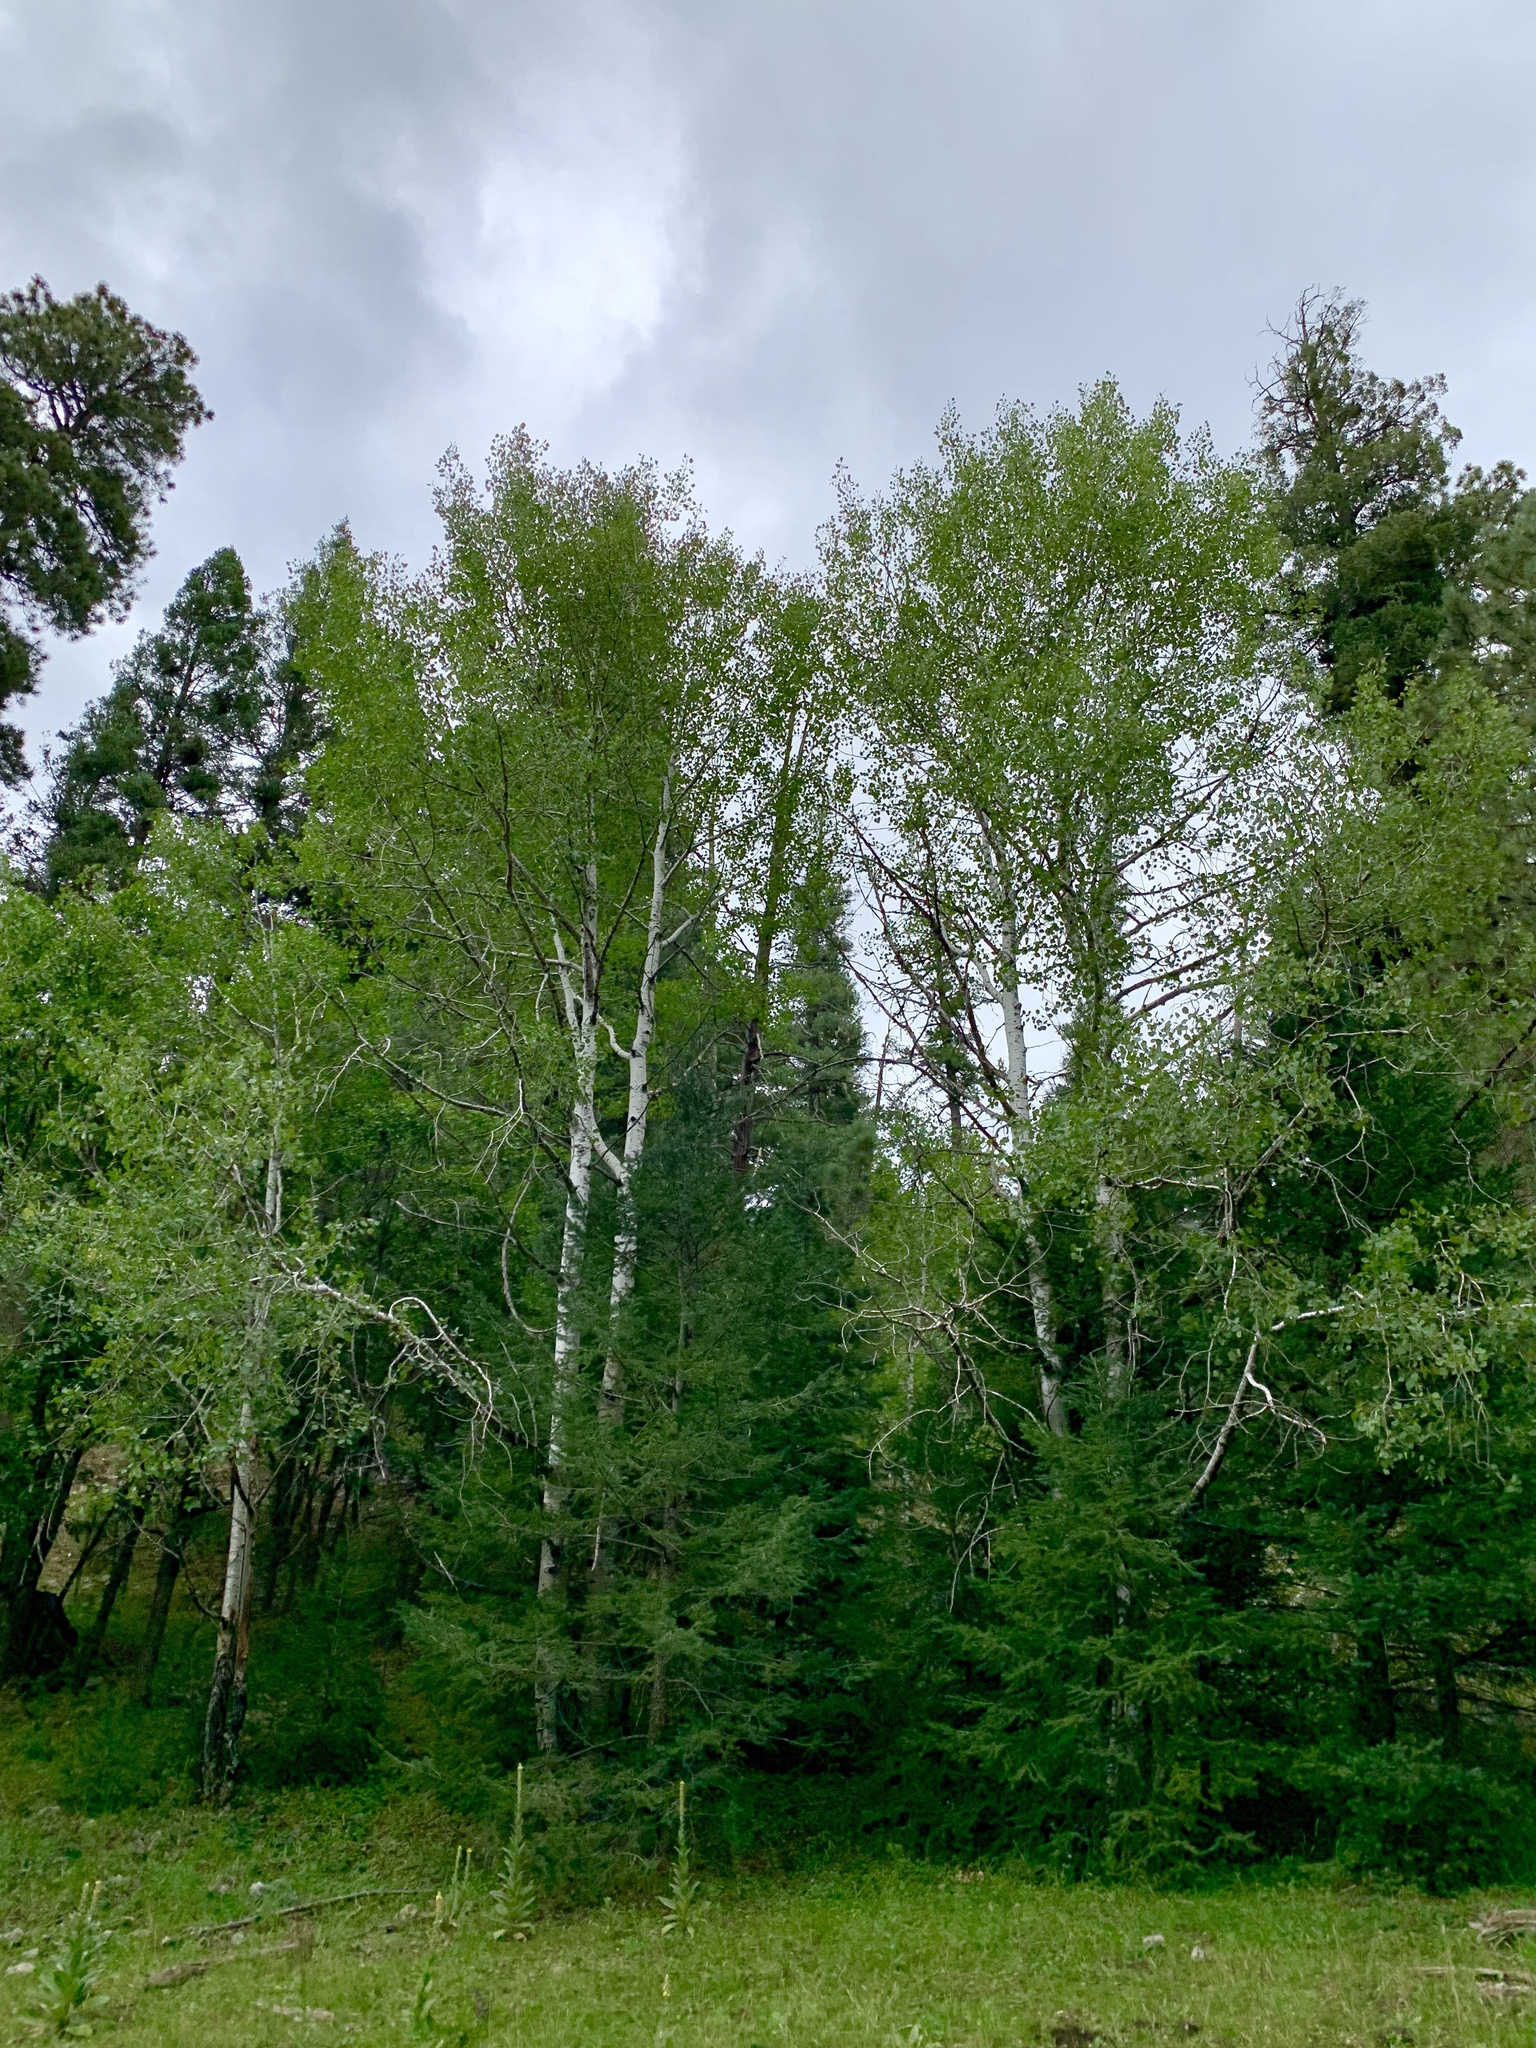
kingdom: Plantae
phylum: Tracheophyta
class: Magnoliopsida
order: Malpighiales
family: Salicaceae
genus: Populus
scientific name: Populus tremuloides
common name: Quaking aspen
